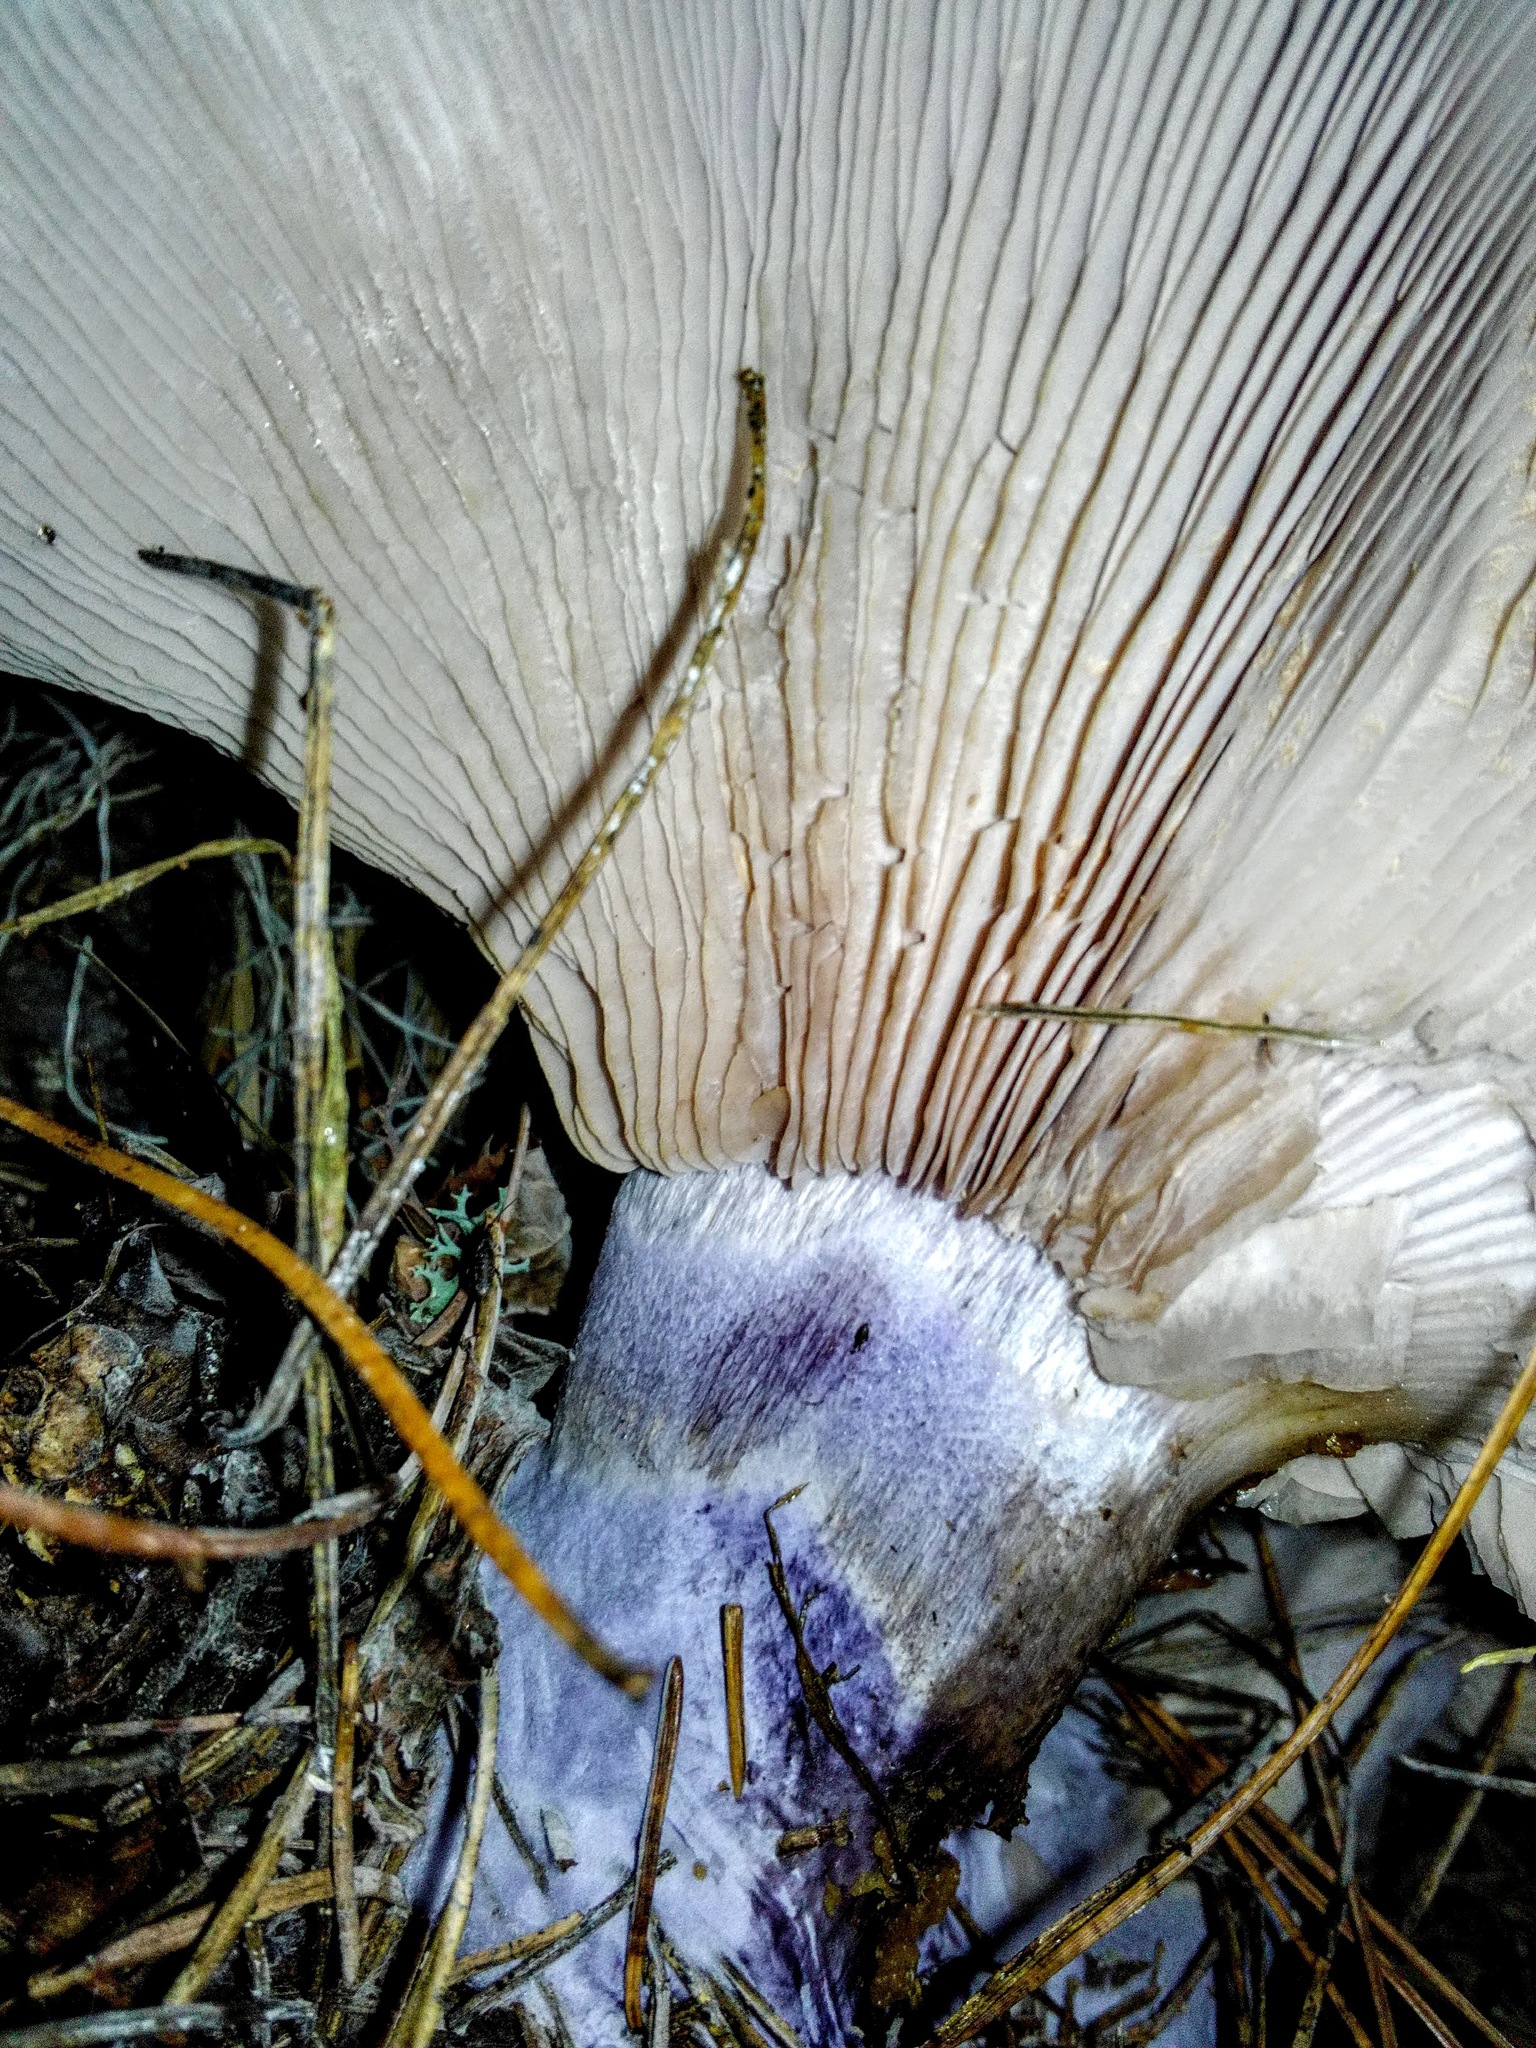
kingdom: Fungi
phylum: Basidiomycota
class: Agaricomycetes
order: Agaricales
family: Omphalotaceae
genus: Collybiopsis
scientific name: Collybiopsis peronata
